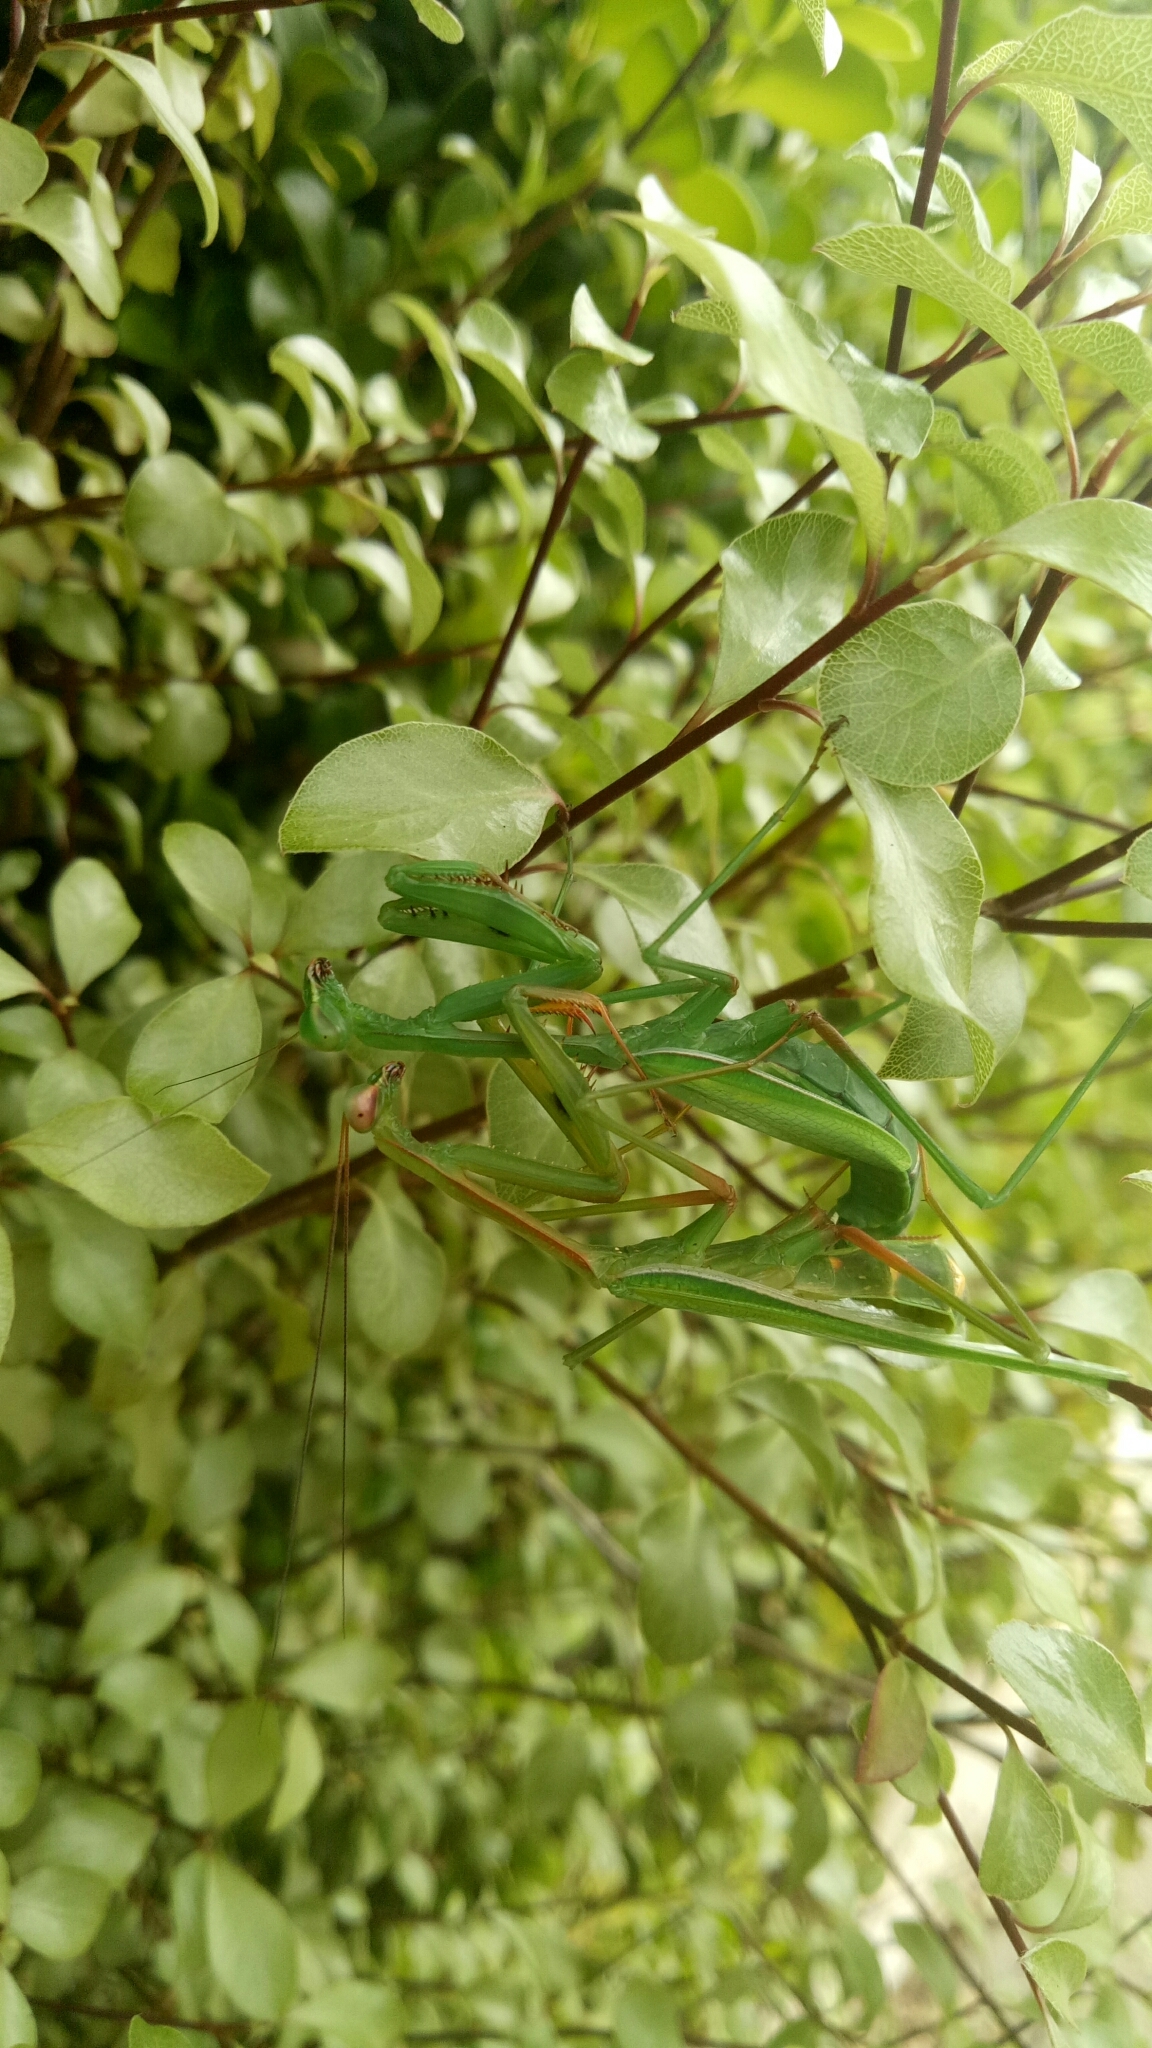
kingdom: Animalia
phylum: Arthropoda
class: Insecta
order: Mantodea
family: Mantidae
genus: Pseudomantis
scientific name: Pseudomantis albofimbriata
